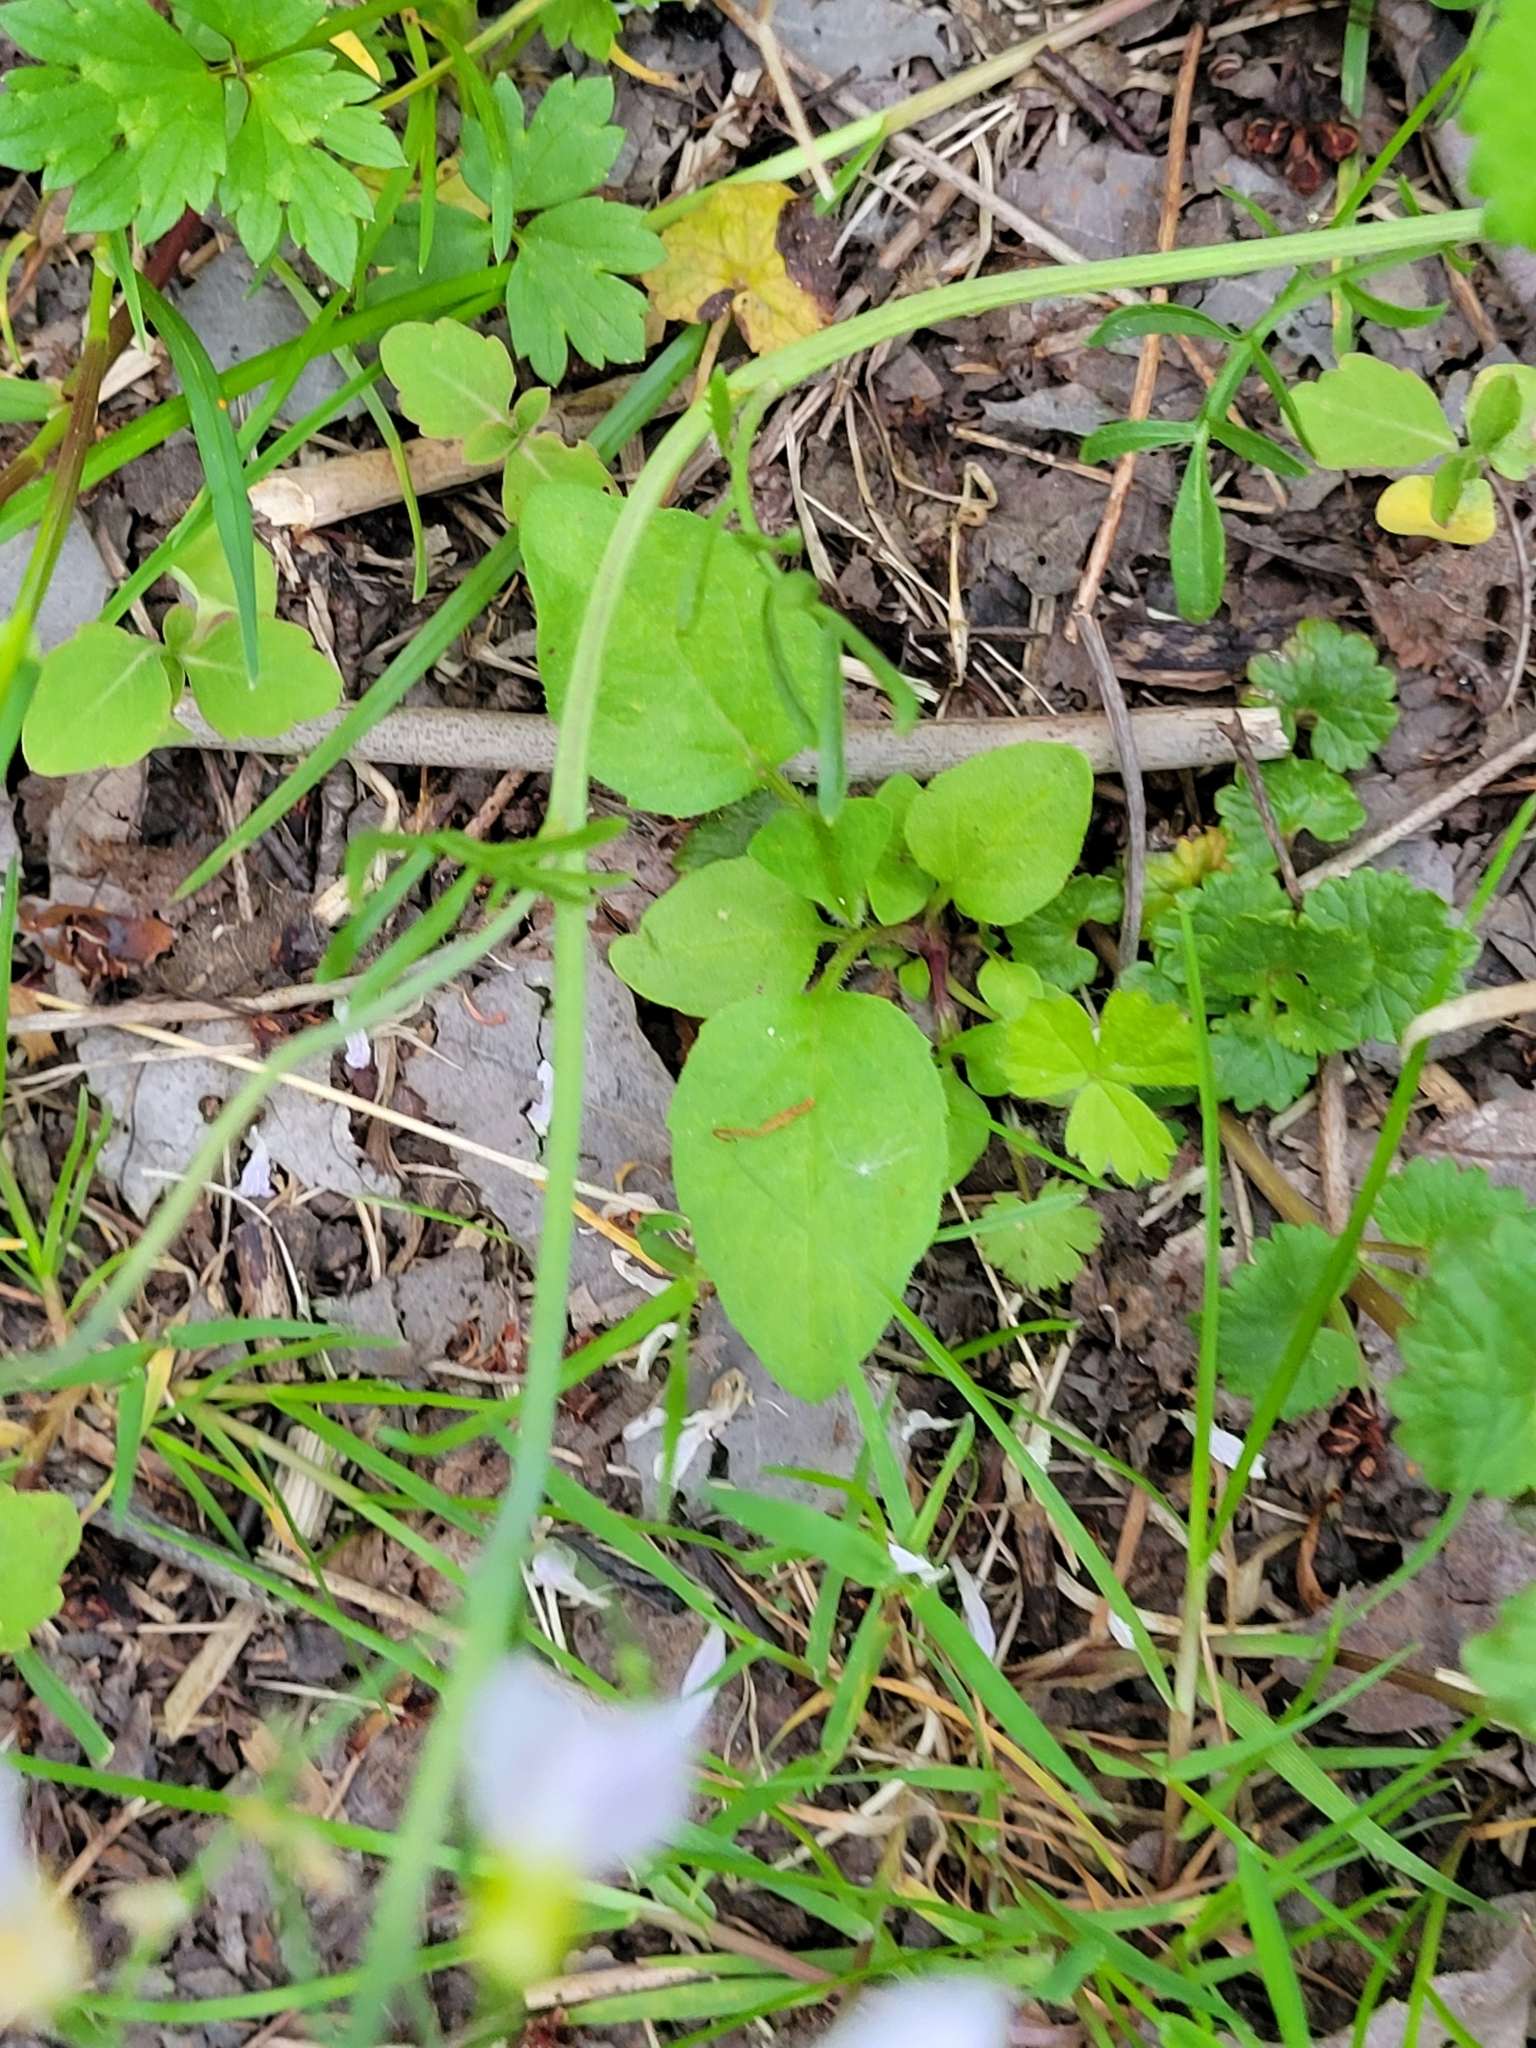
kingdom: Plantae
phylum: Tracheophyta
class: Magnoliopsida
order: Brassicales
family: Brassicaceae
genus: Cardamine
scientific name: Cardamine pratensis
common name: Cuckoo flower
